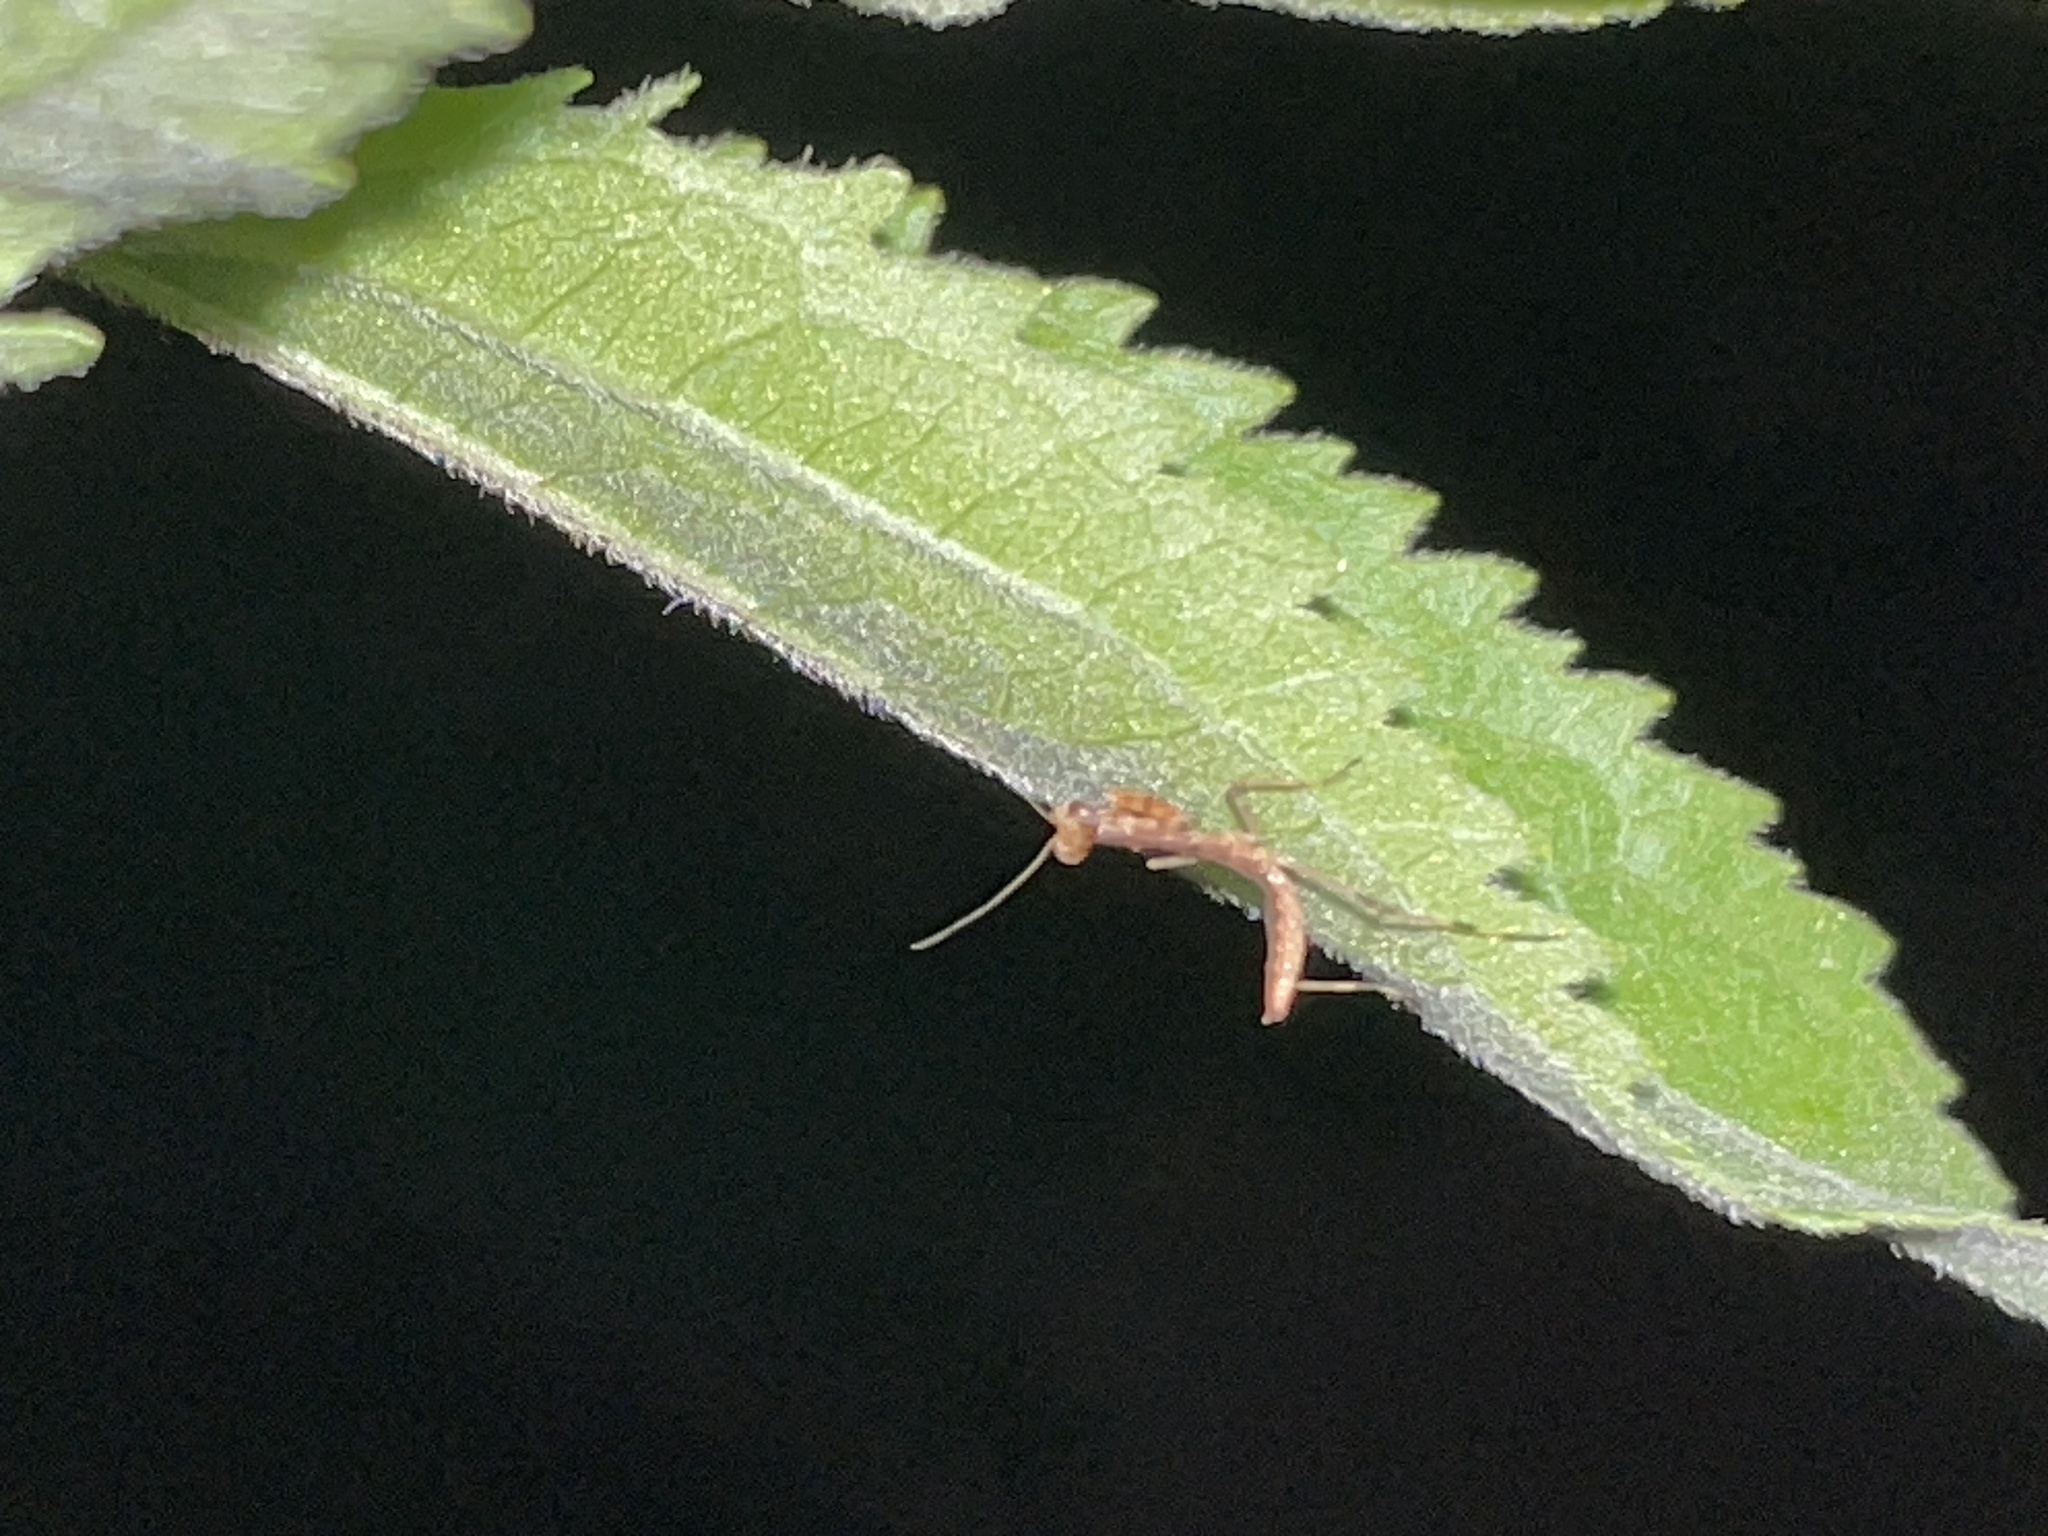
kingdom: Animalia
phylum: Arthropoda
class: Insecta
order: Mantodea
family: Mantidae
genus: Stagmomantis
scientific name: Stagmomantis carolina
